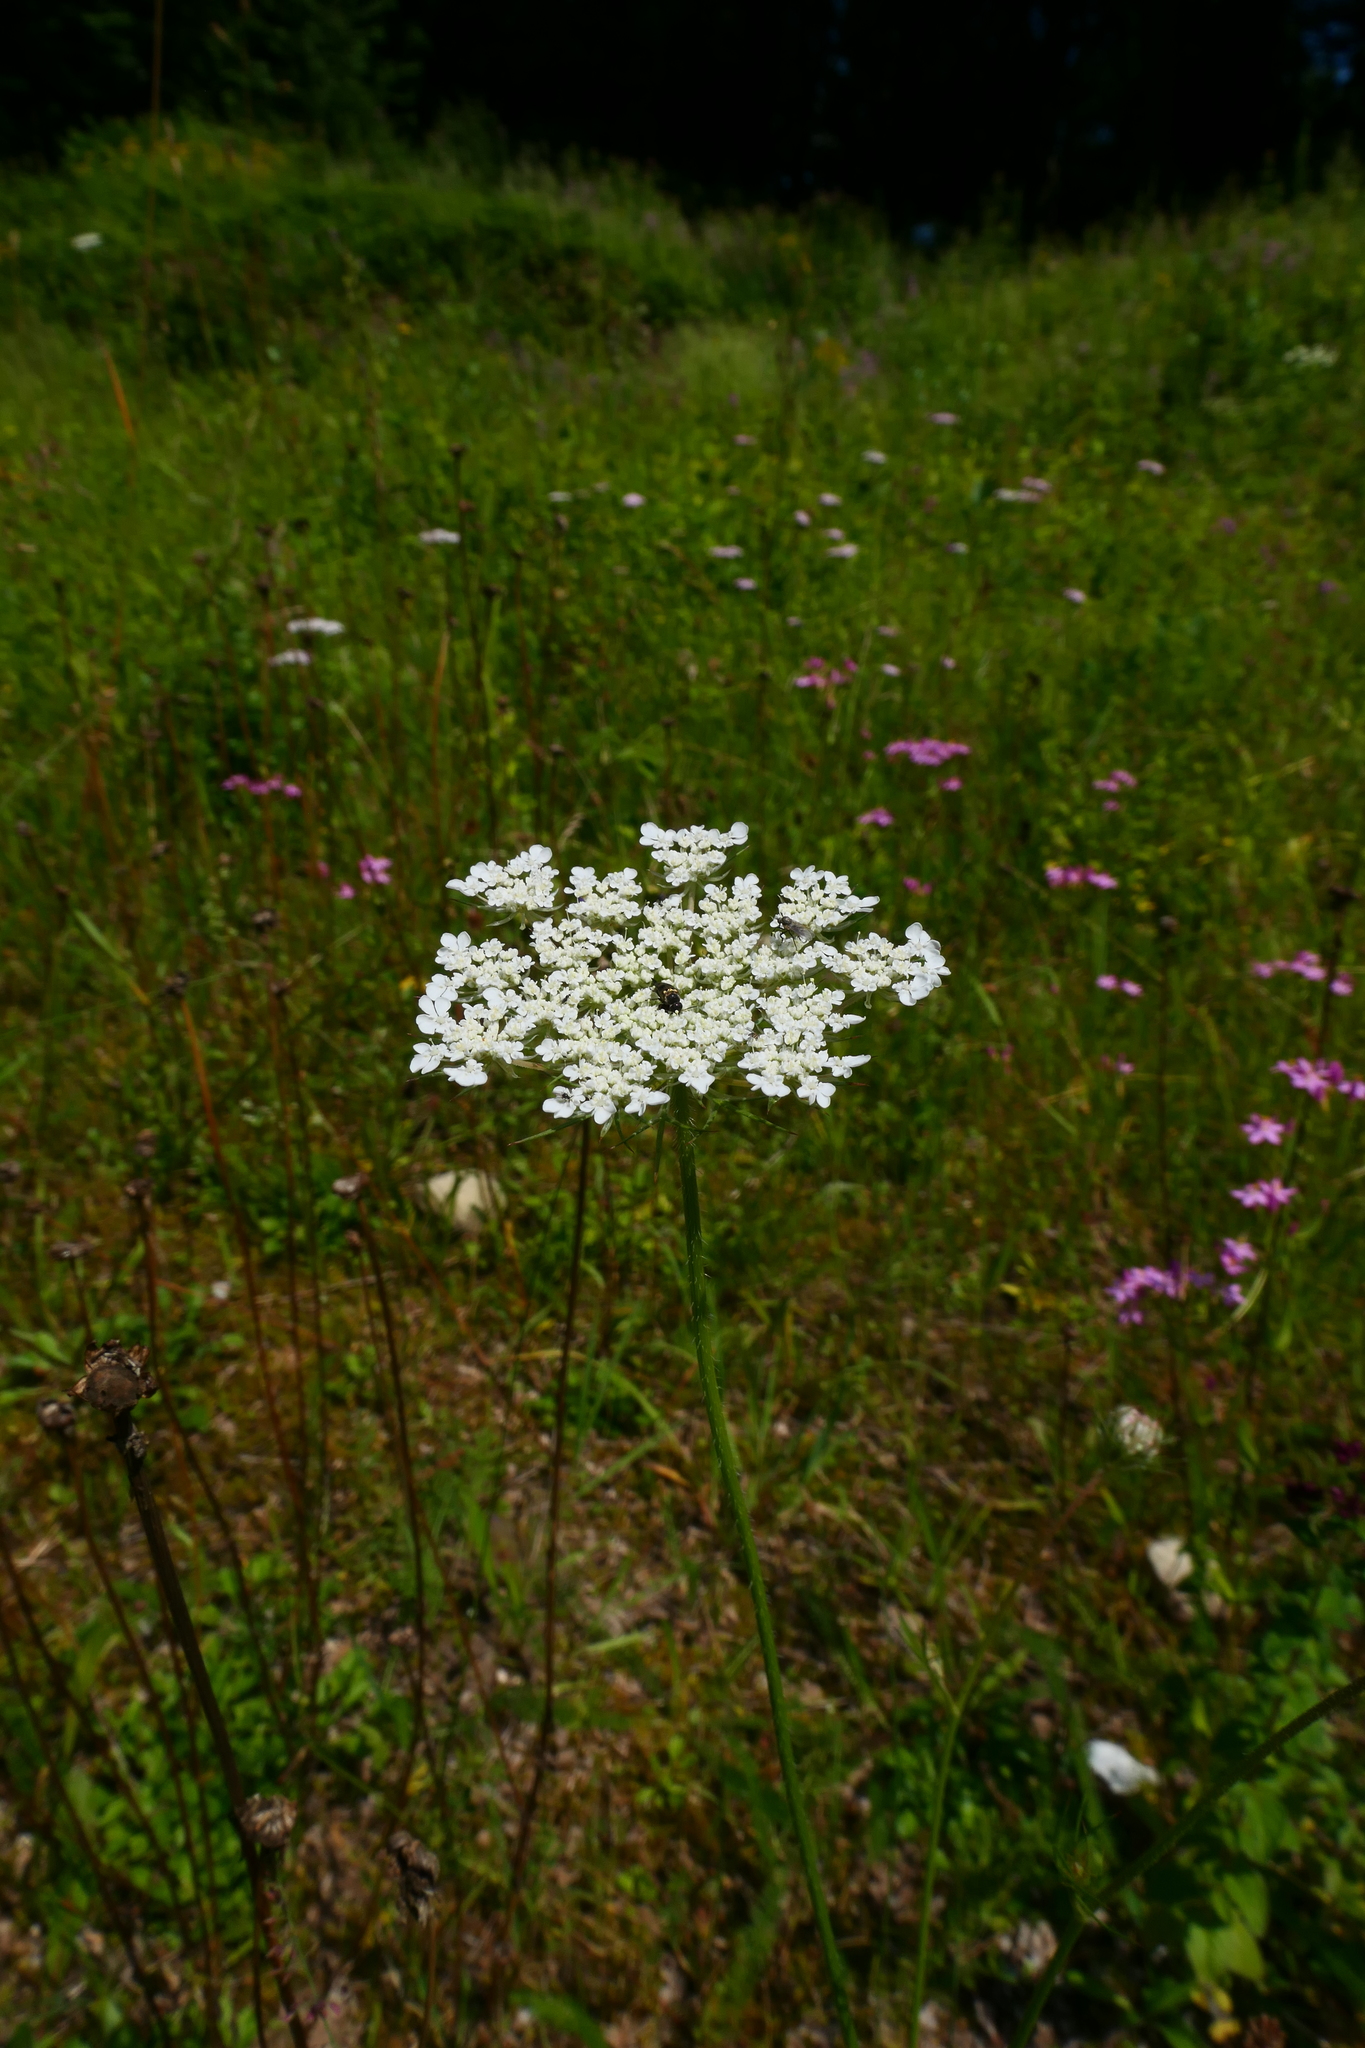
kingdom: Plantae
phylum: Tracheophyta
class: Magnoliopsida
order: Apiales
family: Apiaceae
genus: Daucus
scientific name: Daucus carota
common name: Wild carrot
